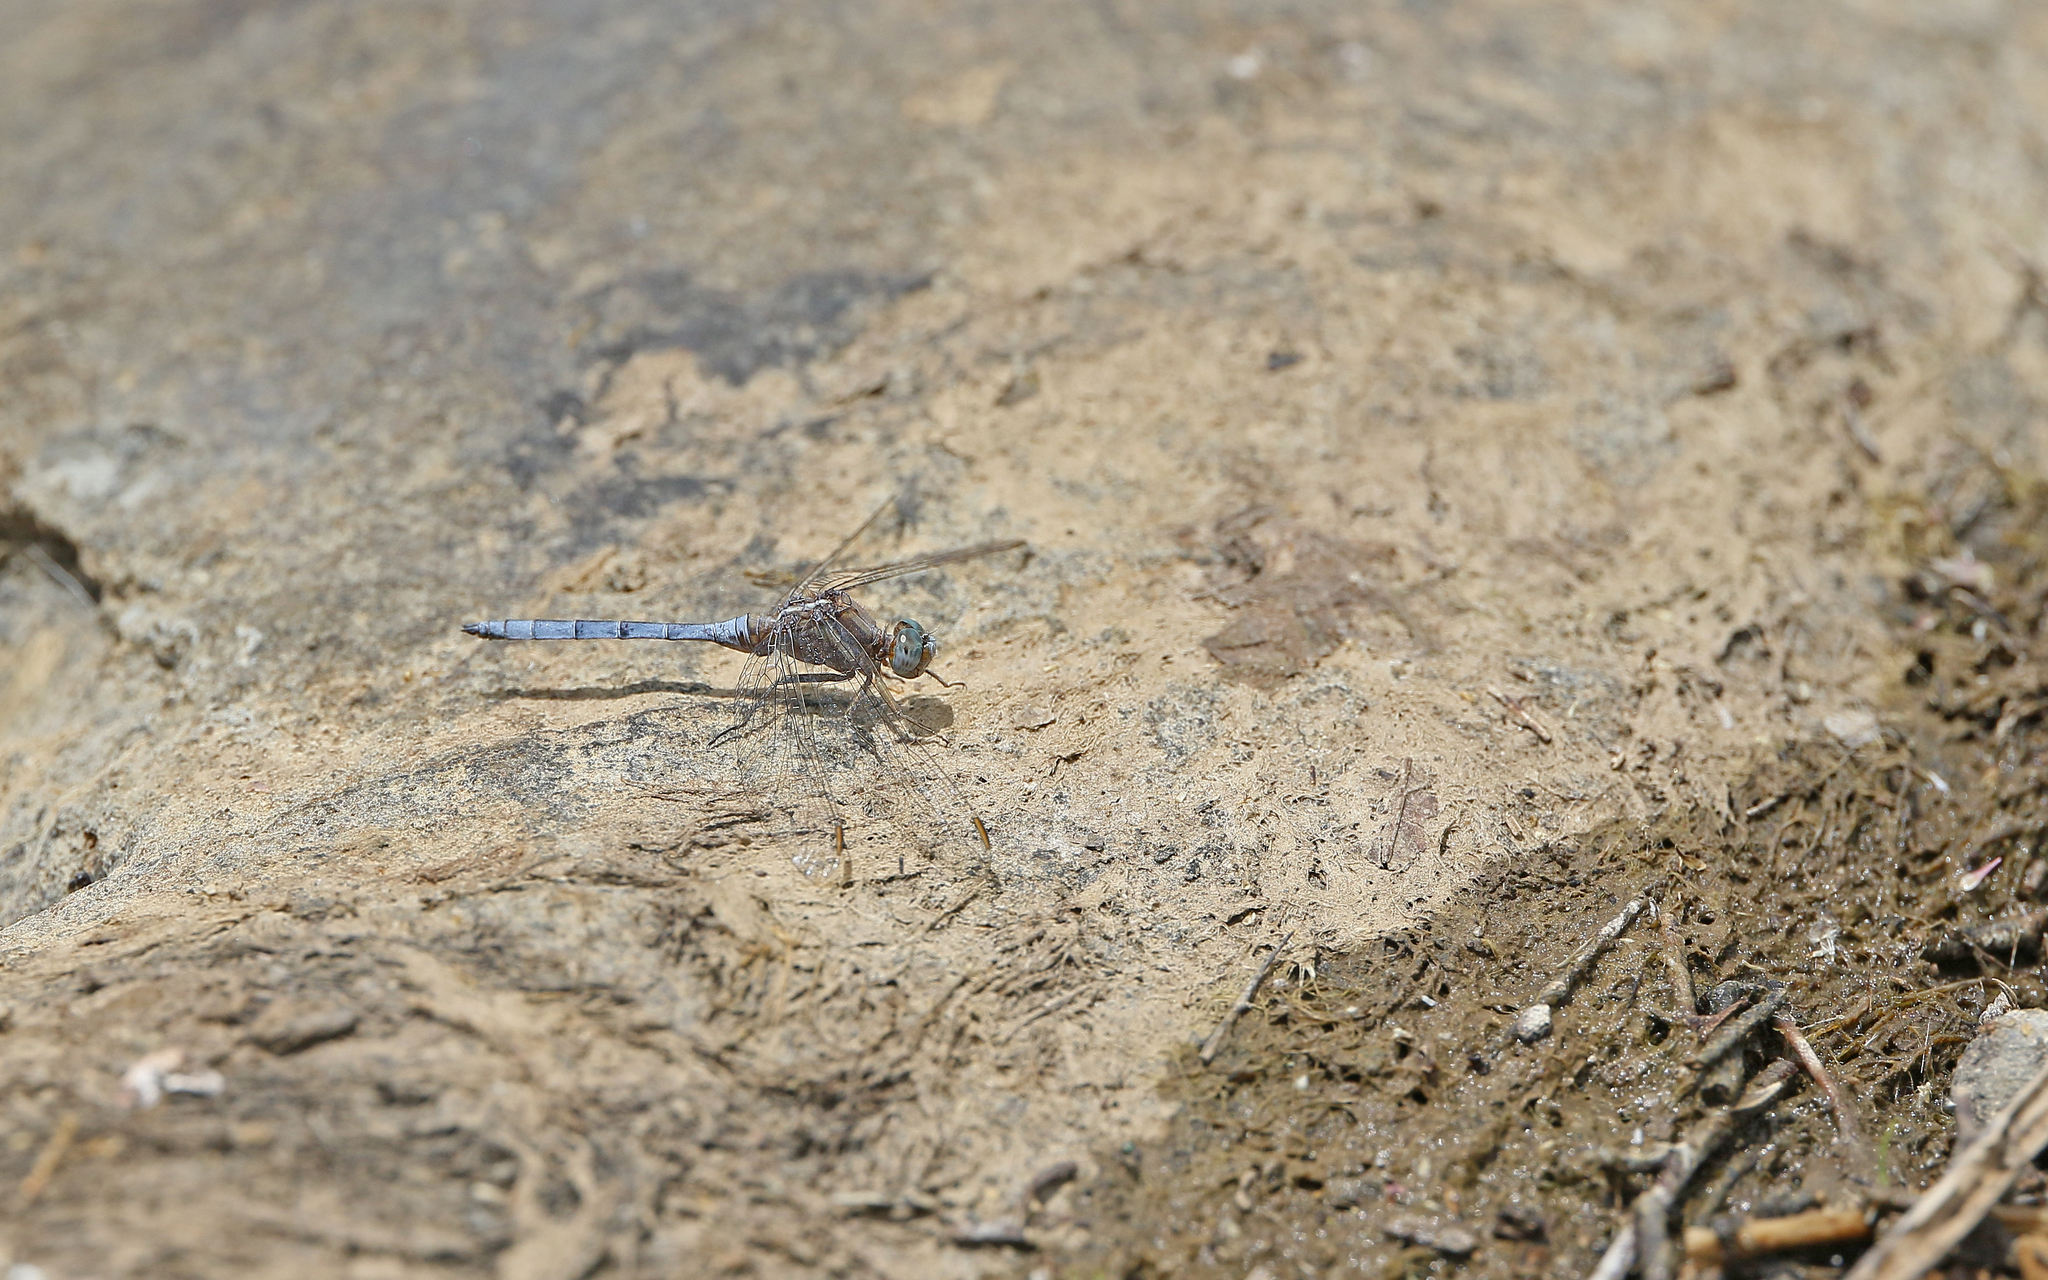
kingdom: Animalia
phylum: Arthropoda
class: Insecta
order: Odonata
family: Libellulidae
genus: Orthetrum
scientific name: Orthetrum chrysostigma
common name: Epaulet skimmer
